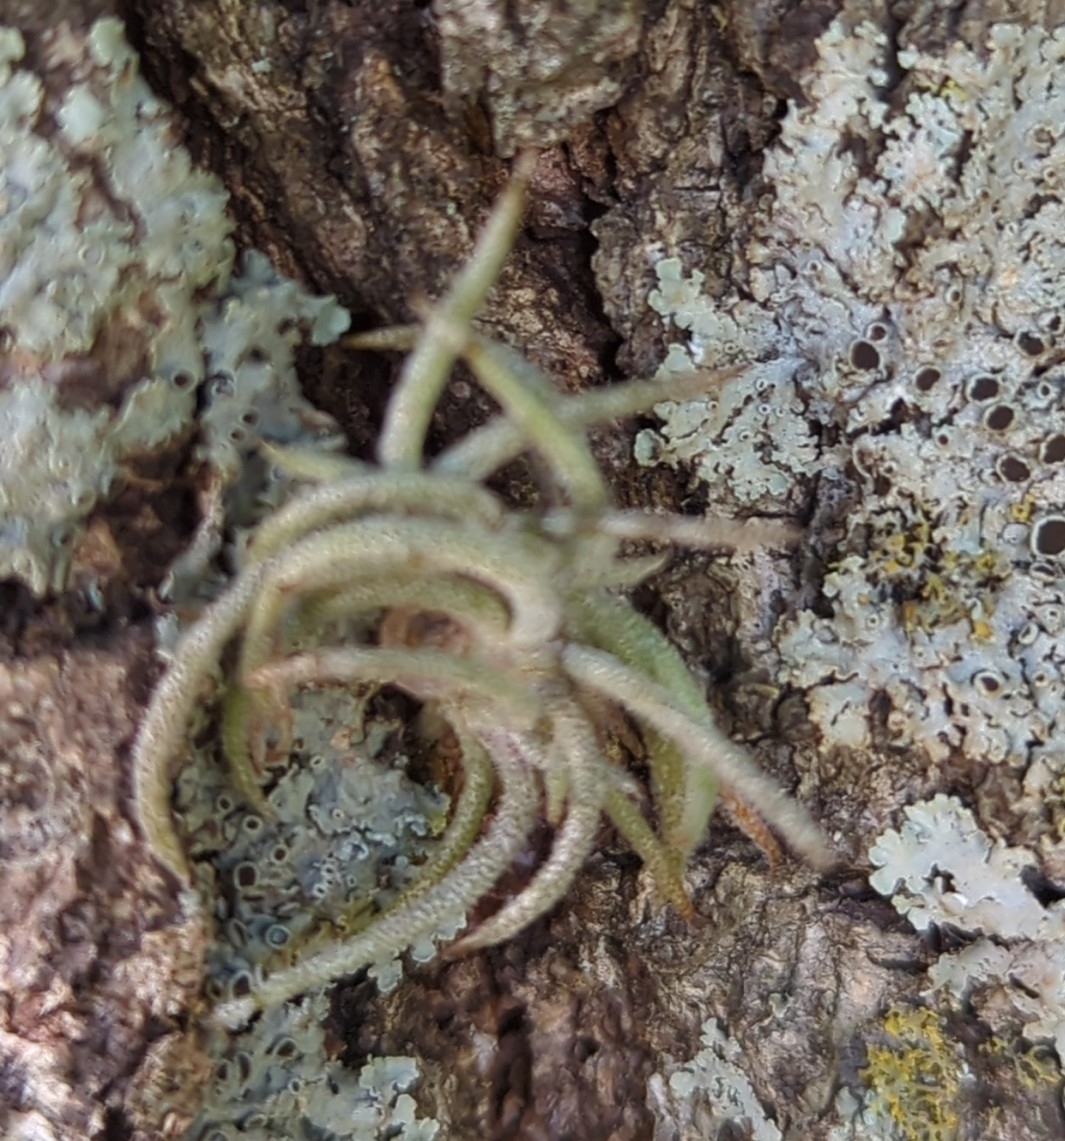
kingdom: Plantae
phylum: Tracheophyta
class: Liliopsida
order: Poales
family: Bromeliaceae
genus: Tillandsia
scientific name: Tillandsia recurvata
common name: Small ballmoss
